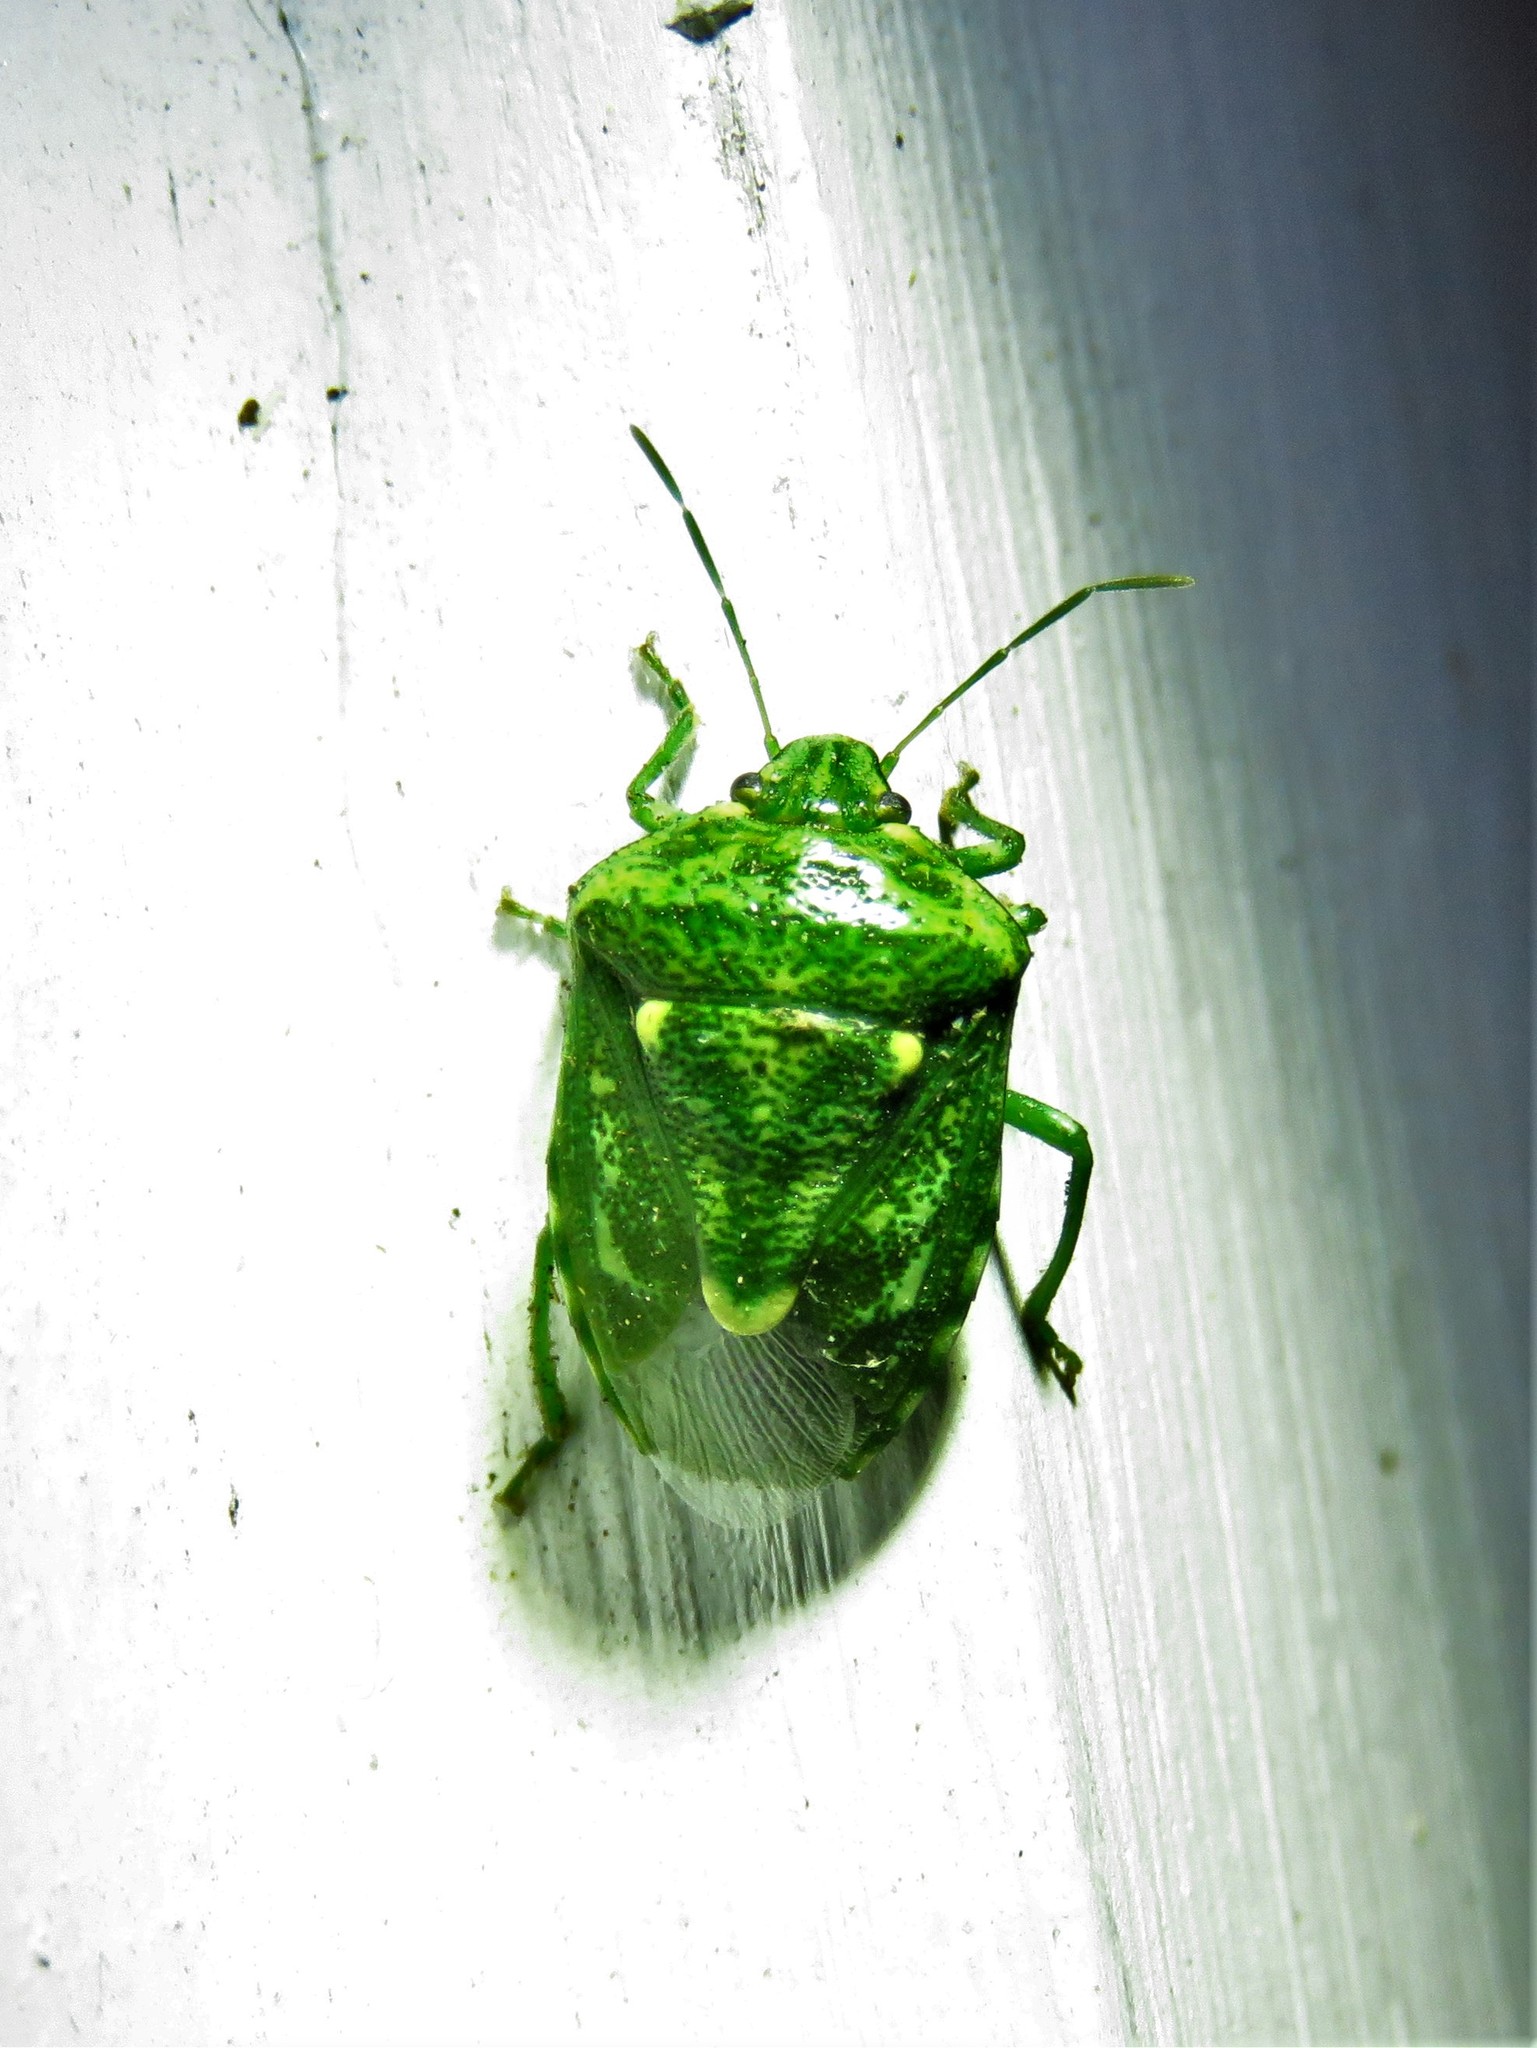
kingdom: Animalia
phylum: Arthropoda
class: Insecta
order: Hemiptera
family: Pentatomidae
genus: Banasa
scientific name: Banasa euchlora
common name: Cedar berry bug
